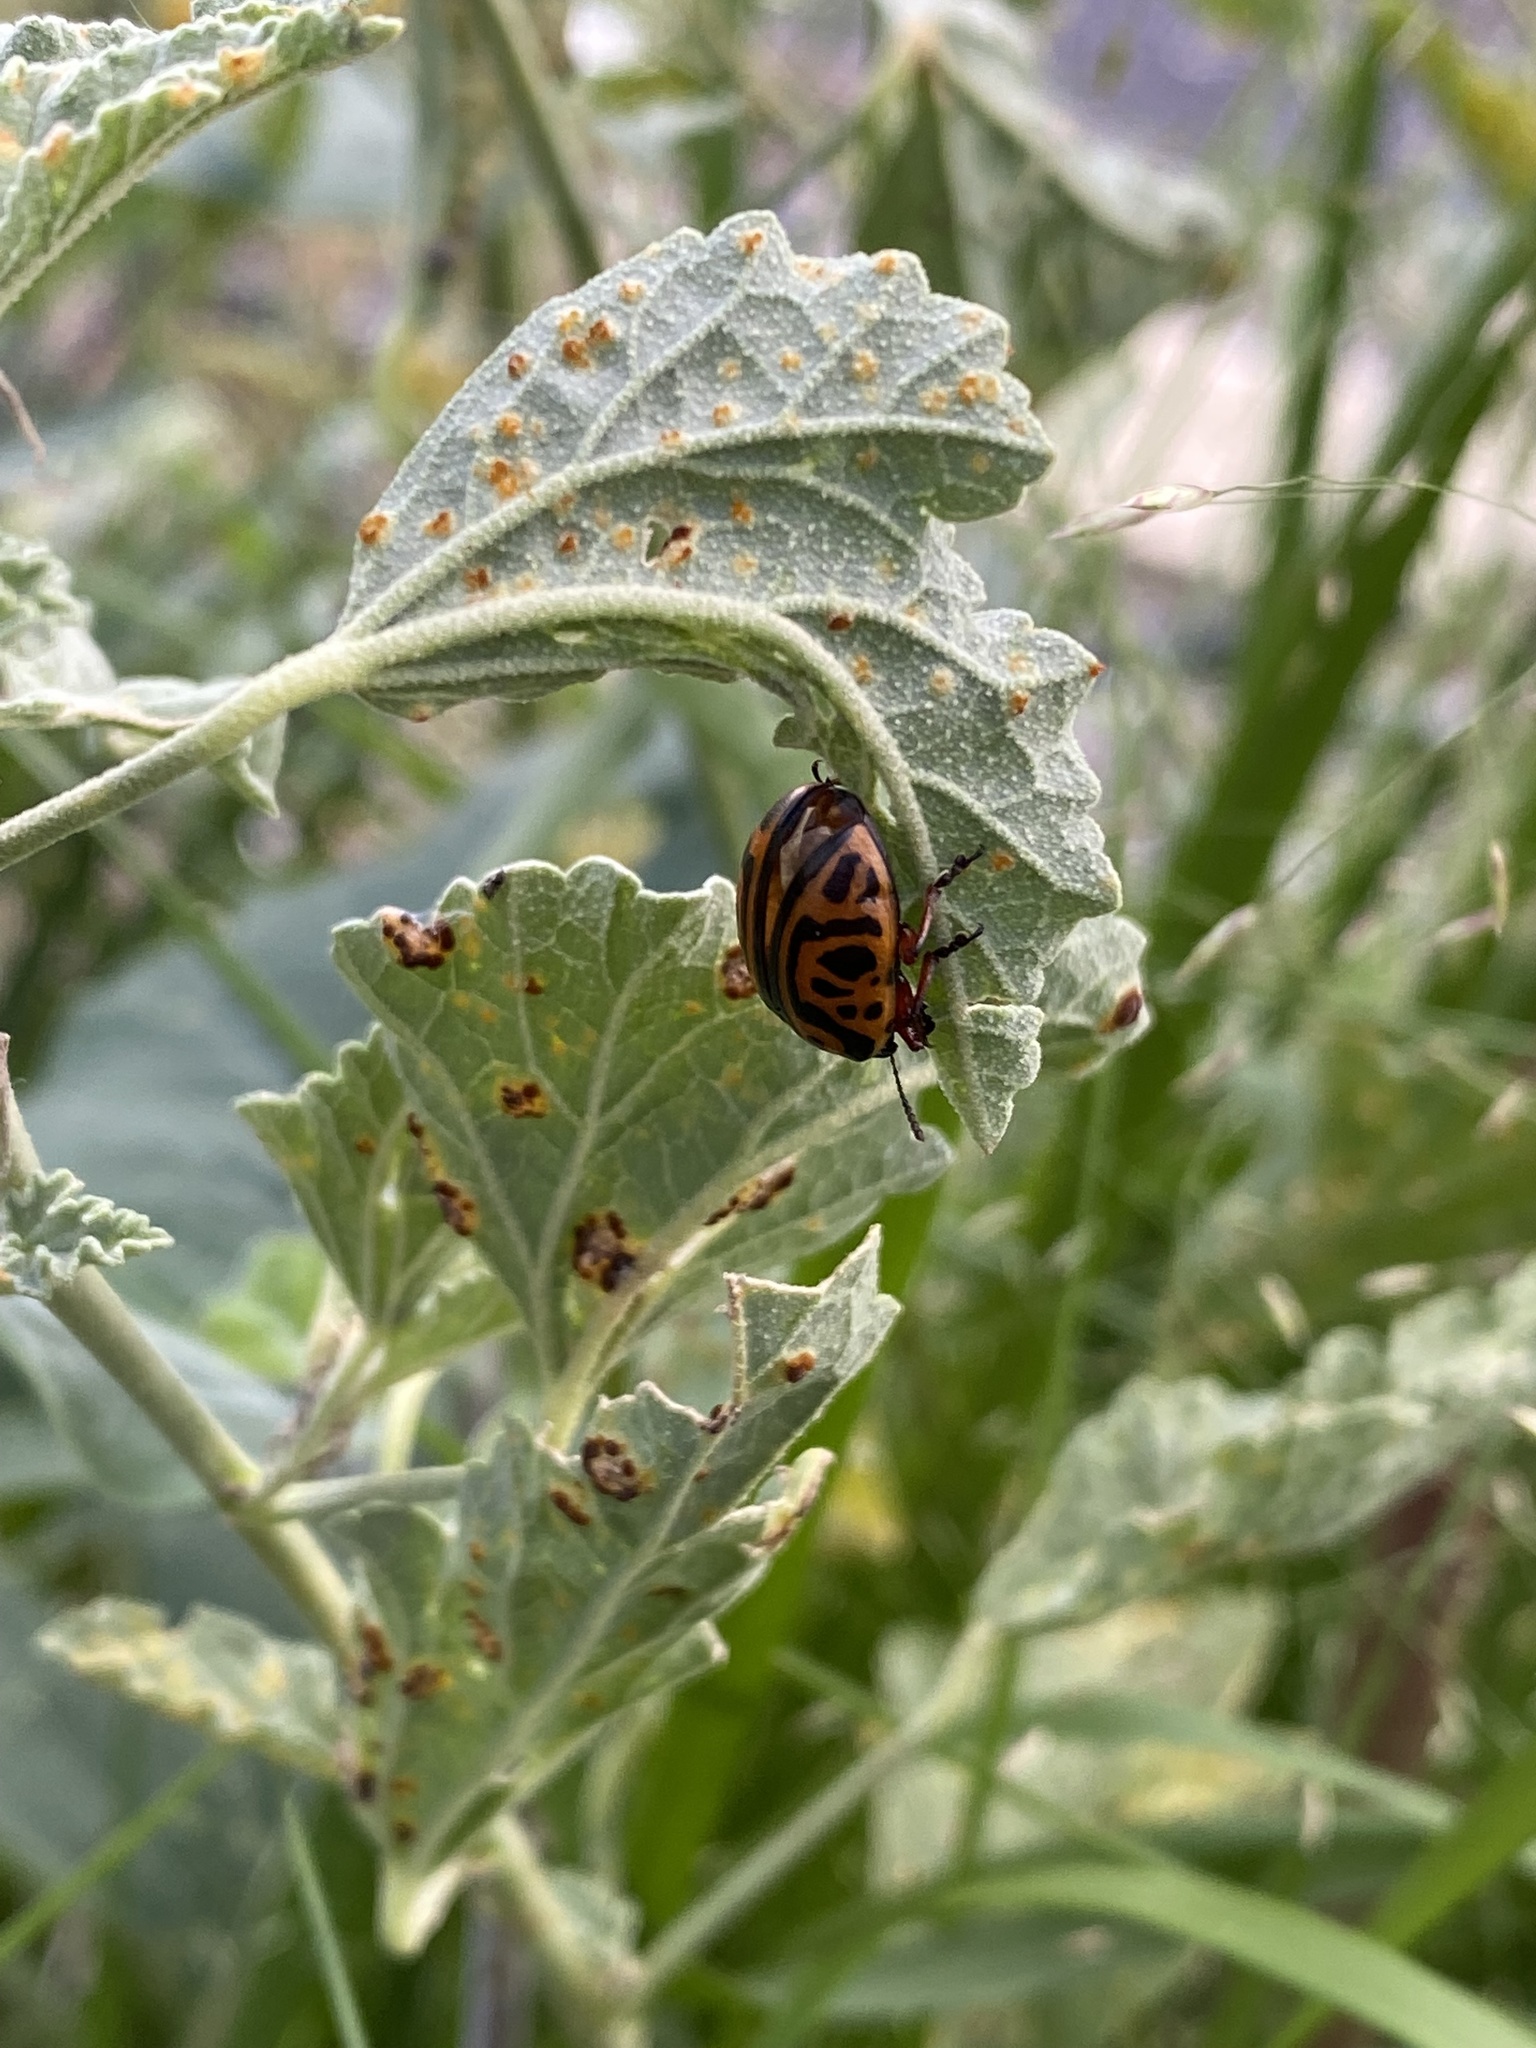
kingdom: Animalia
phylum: Arthropoda
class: Insecta
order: Coleoptera
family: Chrysomelidae
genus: Calligrapha
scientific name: Calligrapha serpentina
